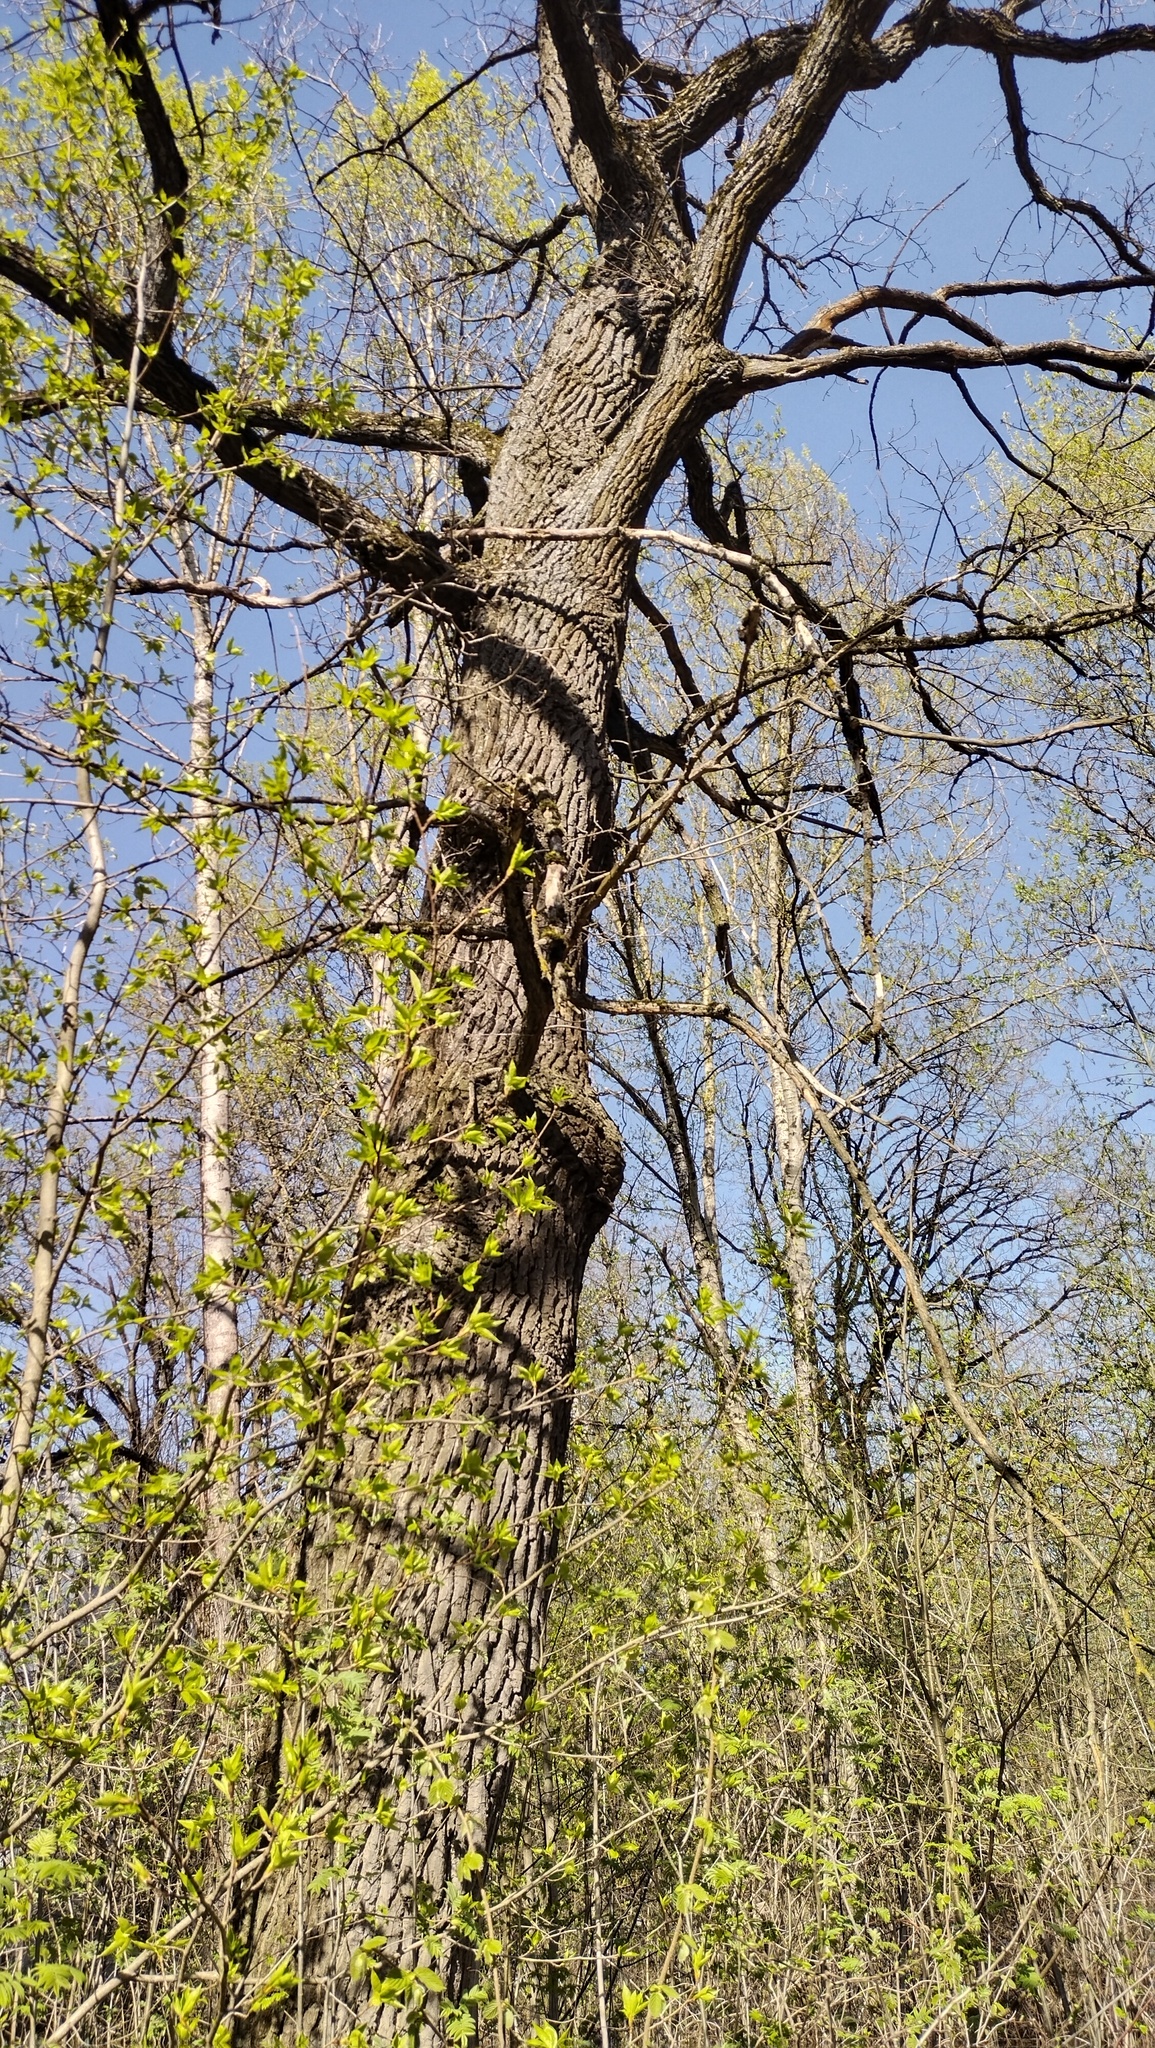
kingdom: Plantae
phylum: Tracheophyta
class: Magnoliopsida
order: Fagales
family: Fagaceae
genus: Quercus
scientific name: Quercus robur
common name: Pedunculate oak
